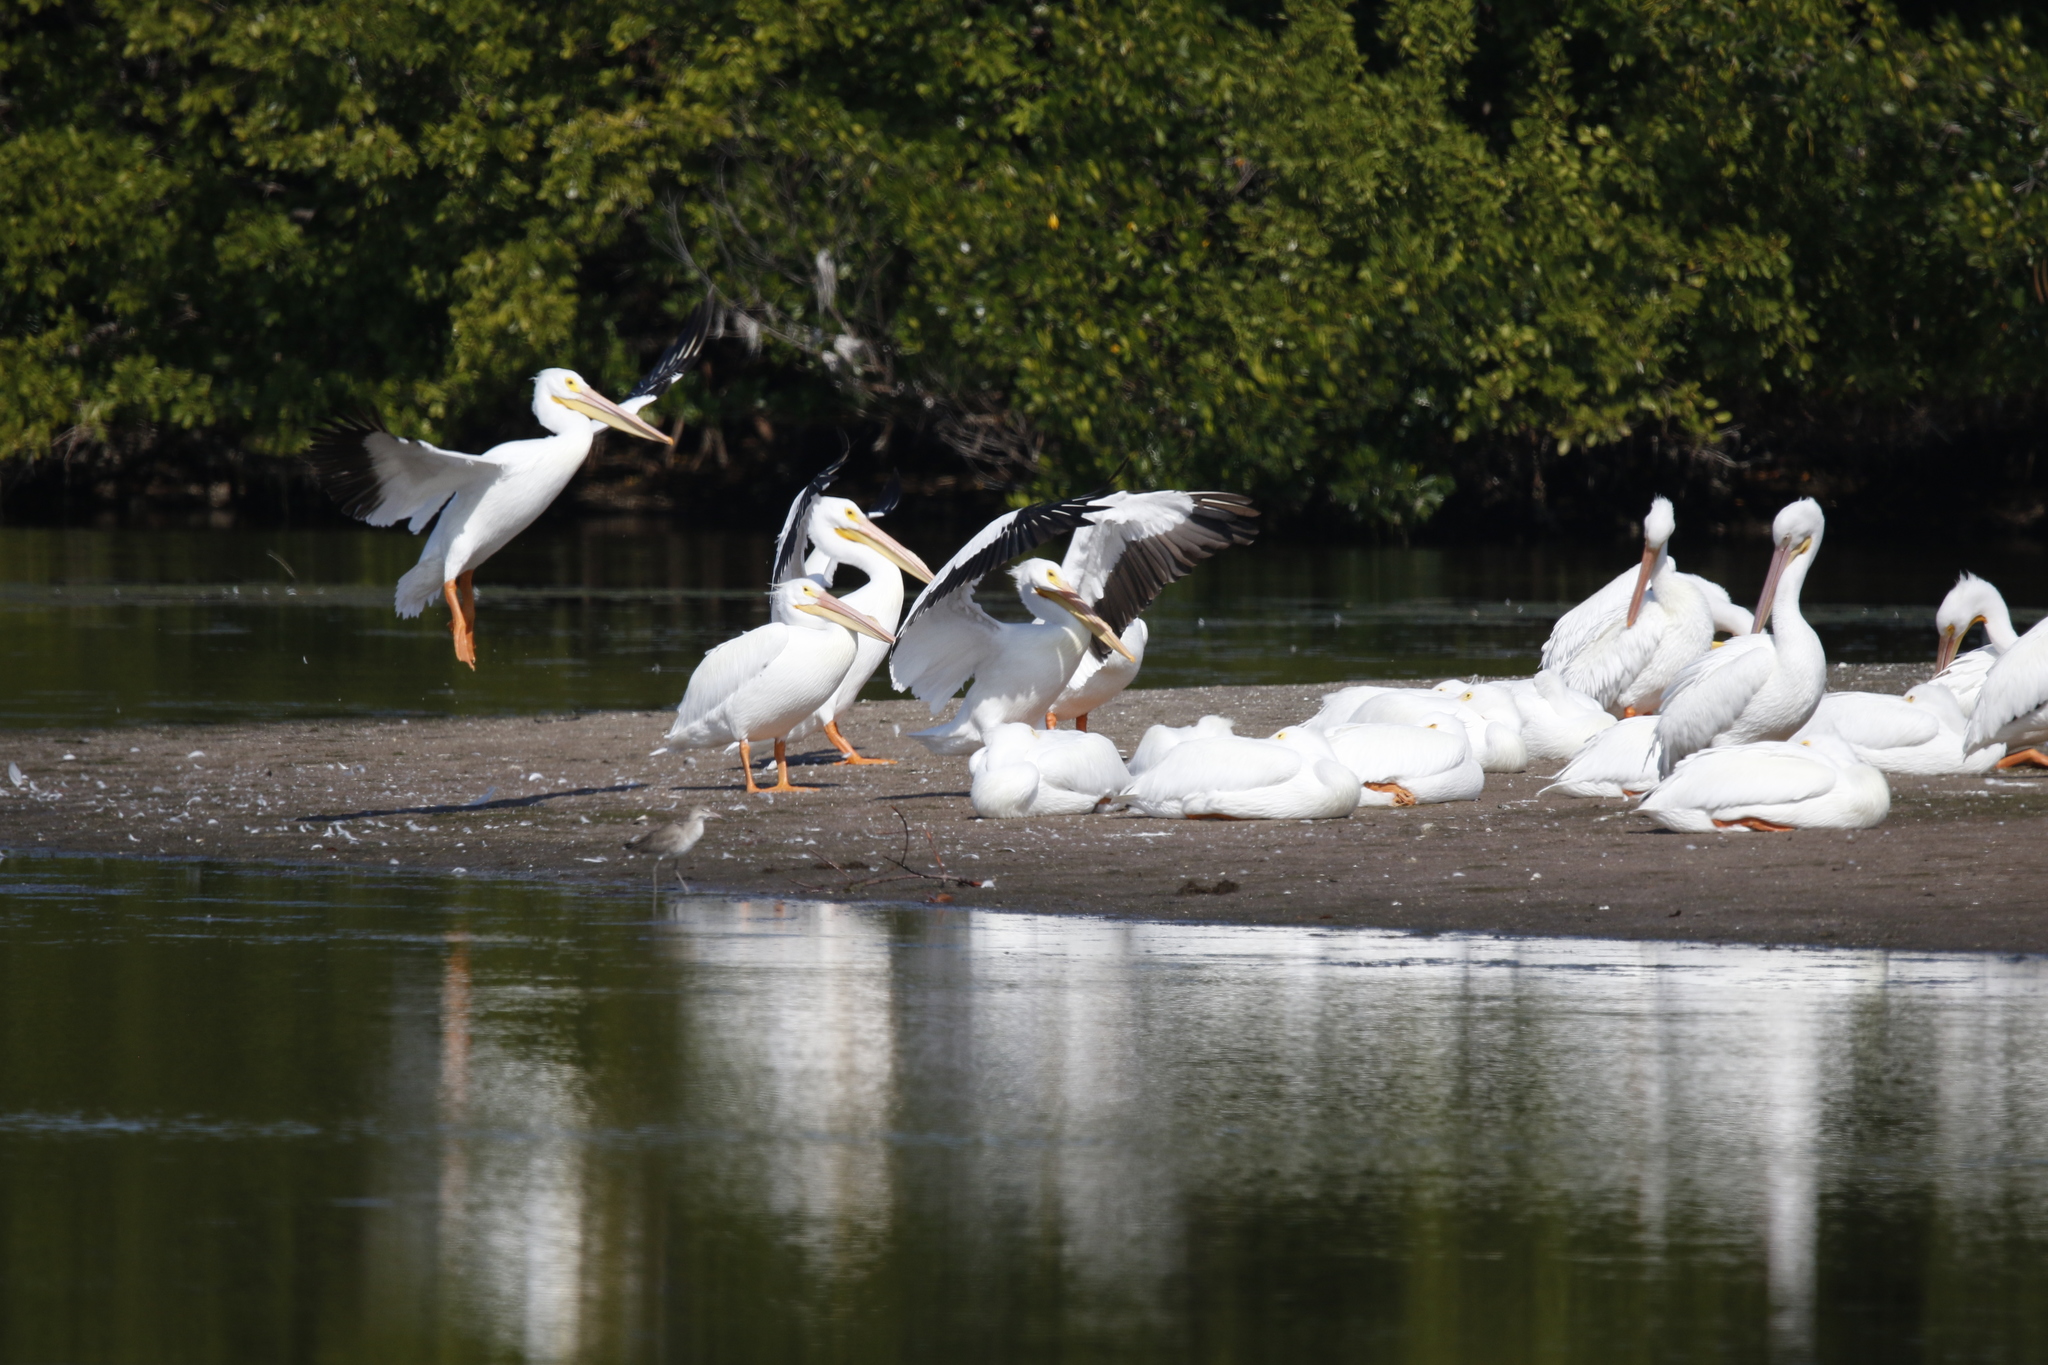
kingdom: Animalia
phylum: Chordata
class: Aves
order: Pelecaniformes
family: Pelecanidae
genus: Pelecanus
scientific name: Pelecanus erythrorhynchos
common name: American white pelican
